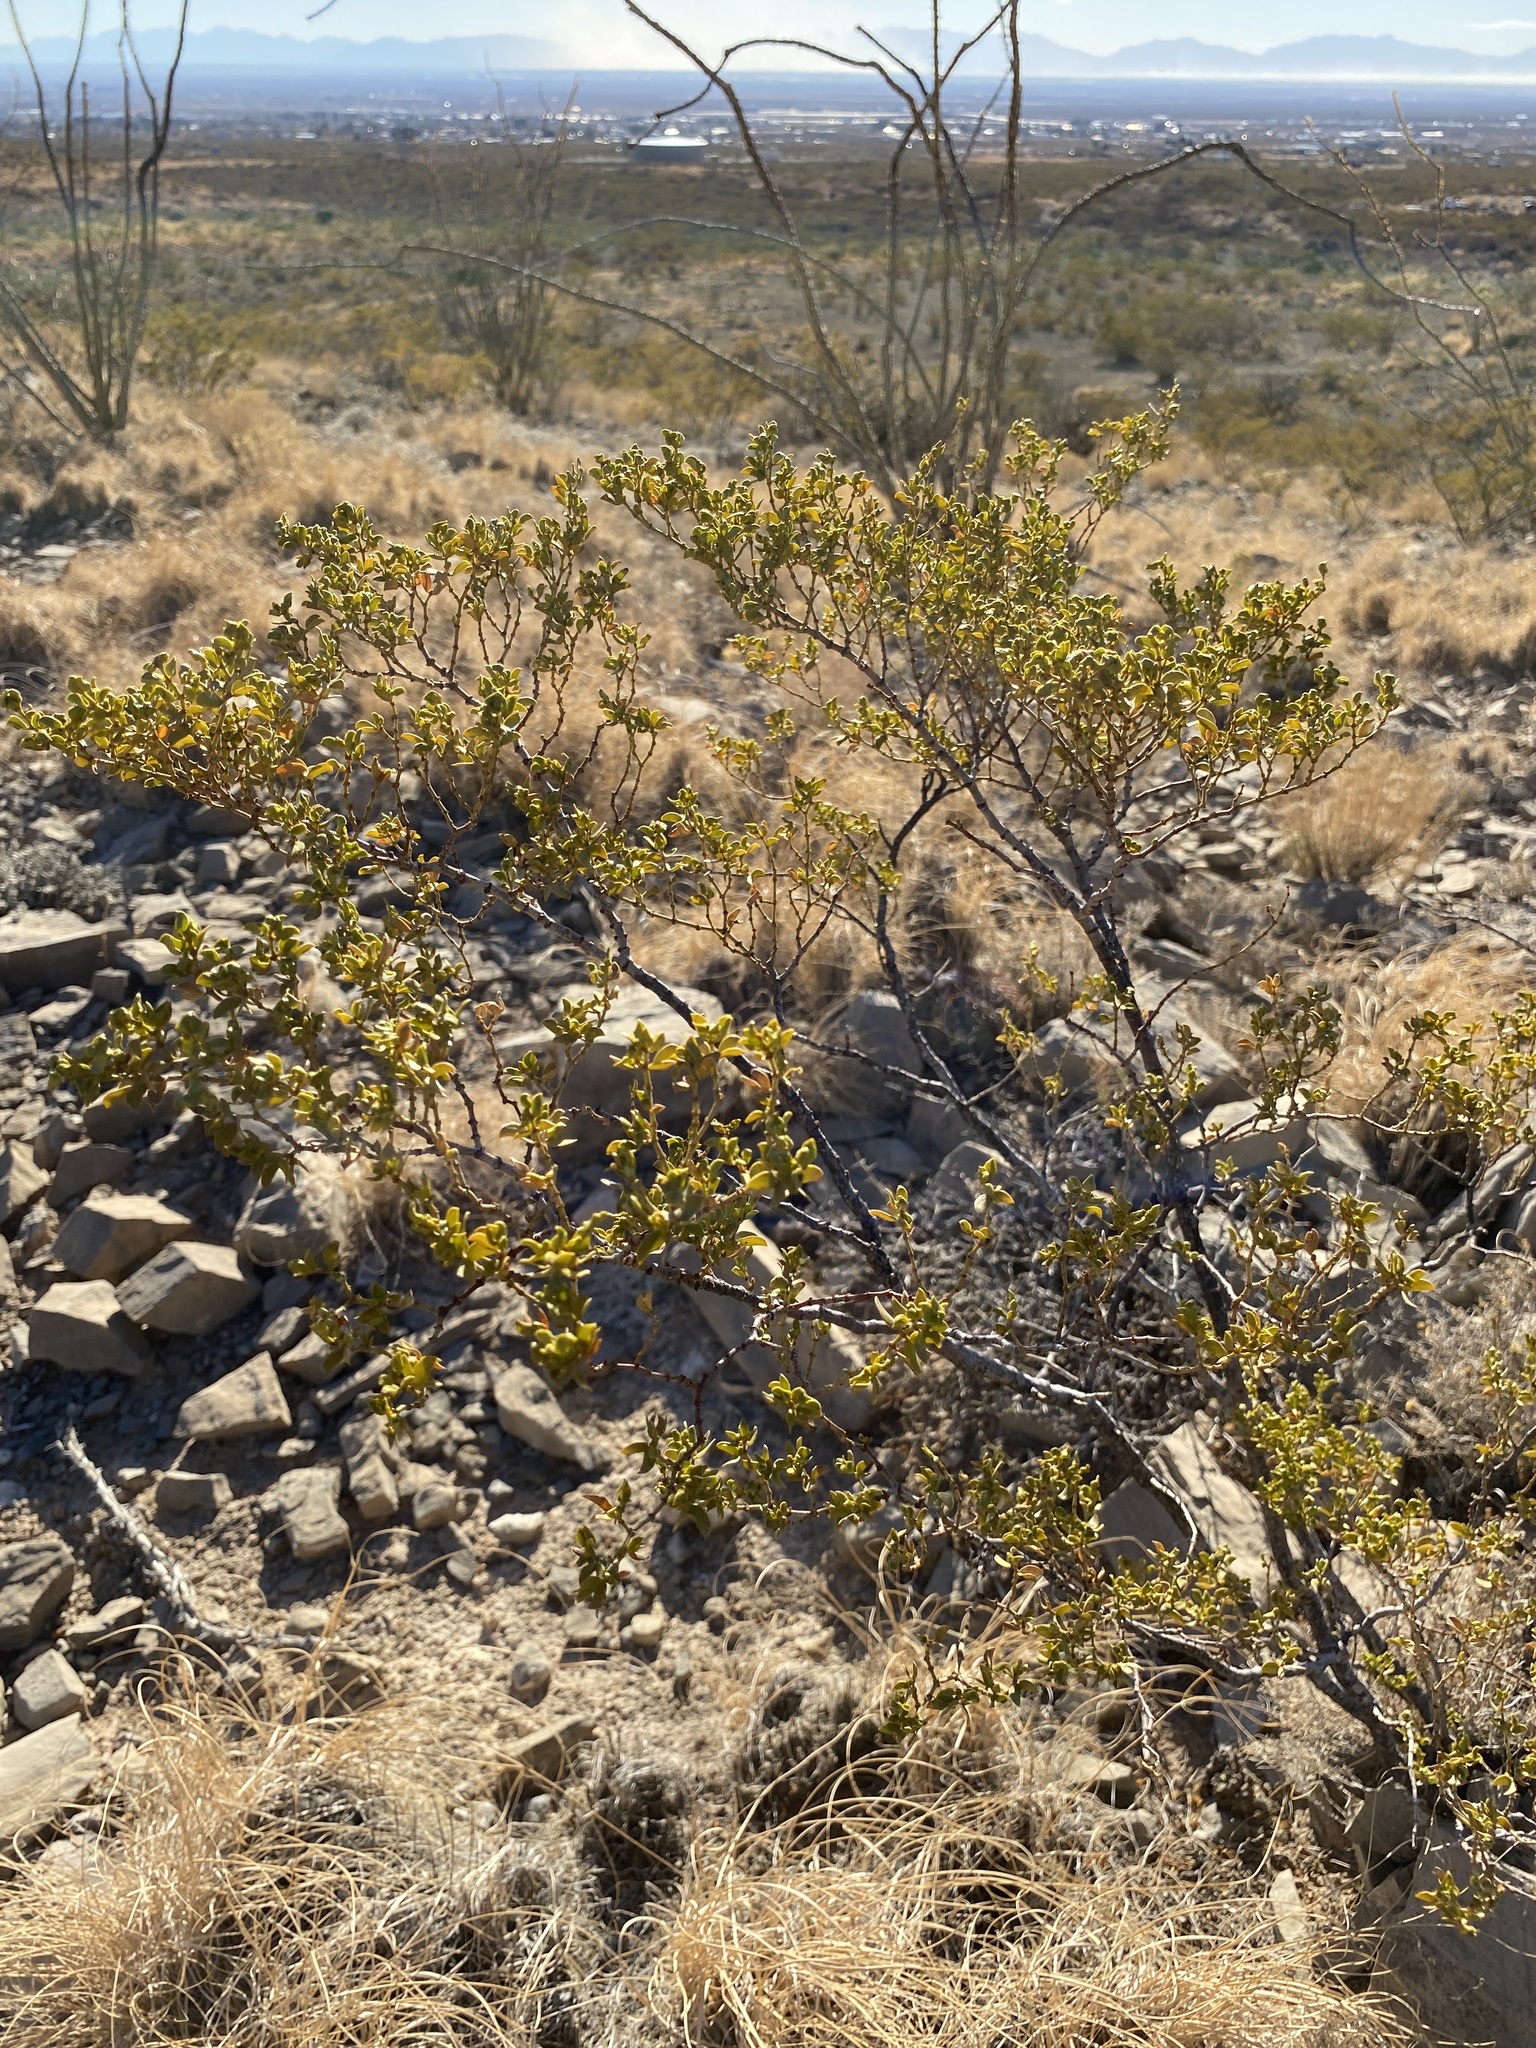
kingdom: Plantae
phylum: Tracheophyta
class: Magnoliopsida
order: Zygophyllales
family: Zygophyllaceae
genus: Larrea
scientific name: Larrea tridentata
